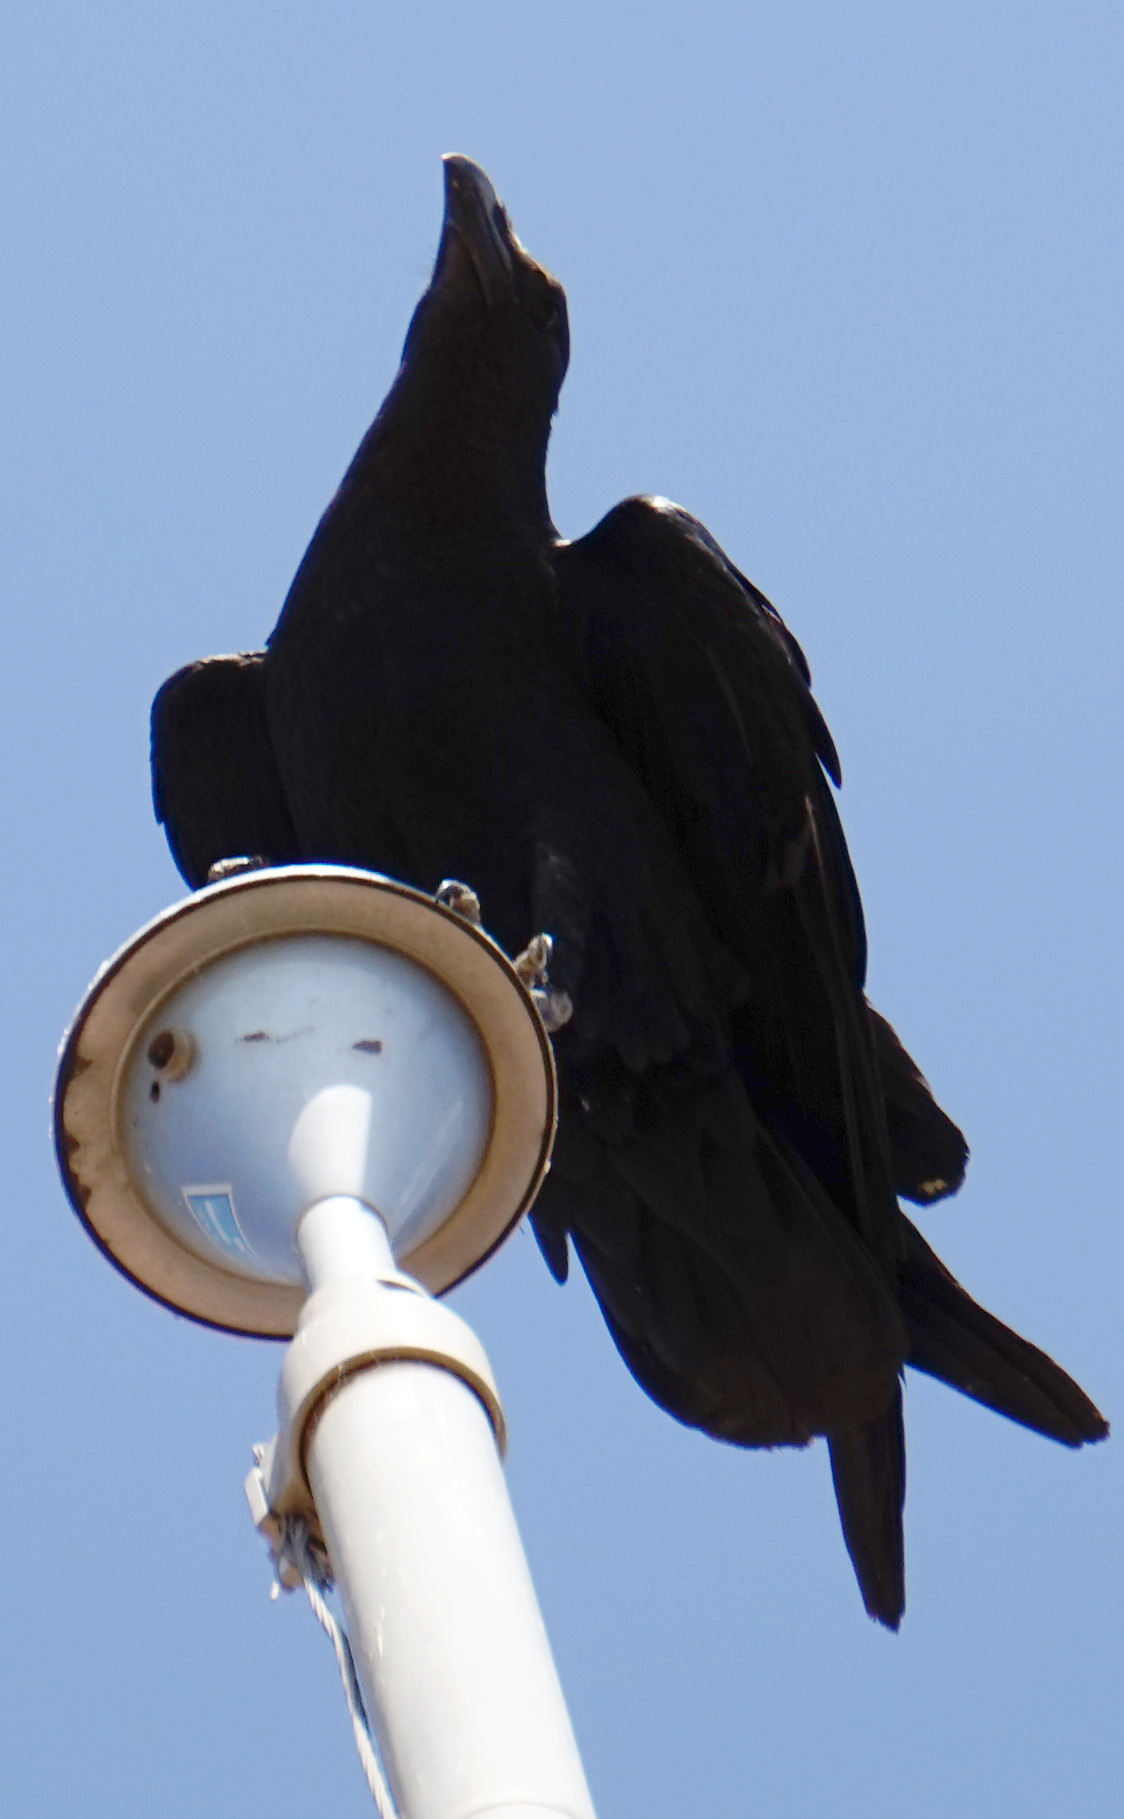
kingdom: Animalia
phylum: Chordata
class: Aves
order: Passeriformes
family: Corvidae
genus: Corvus
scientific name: Corvus rhipidurus
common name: Fan-tailed raven
